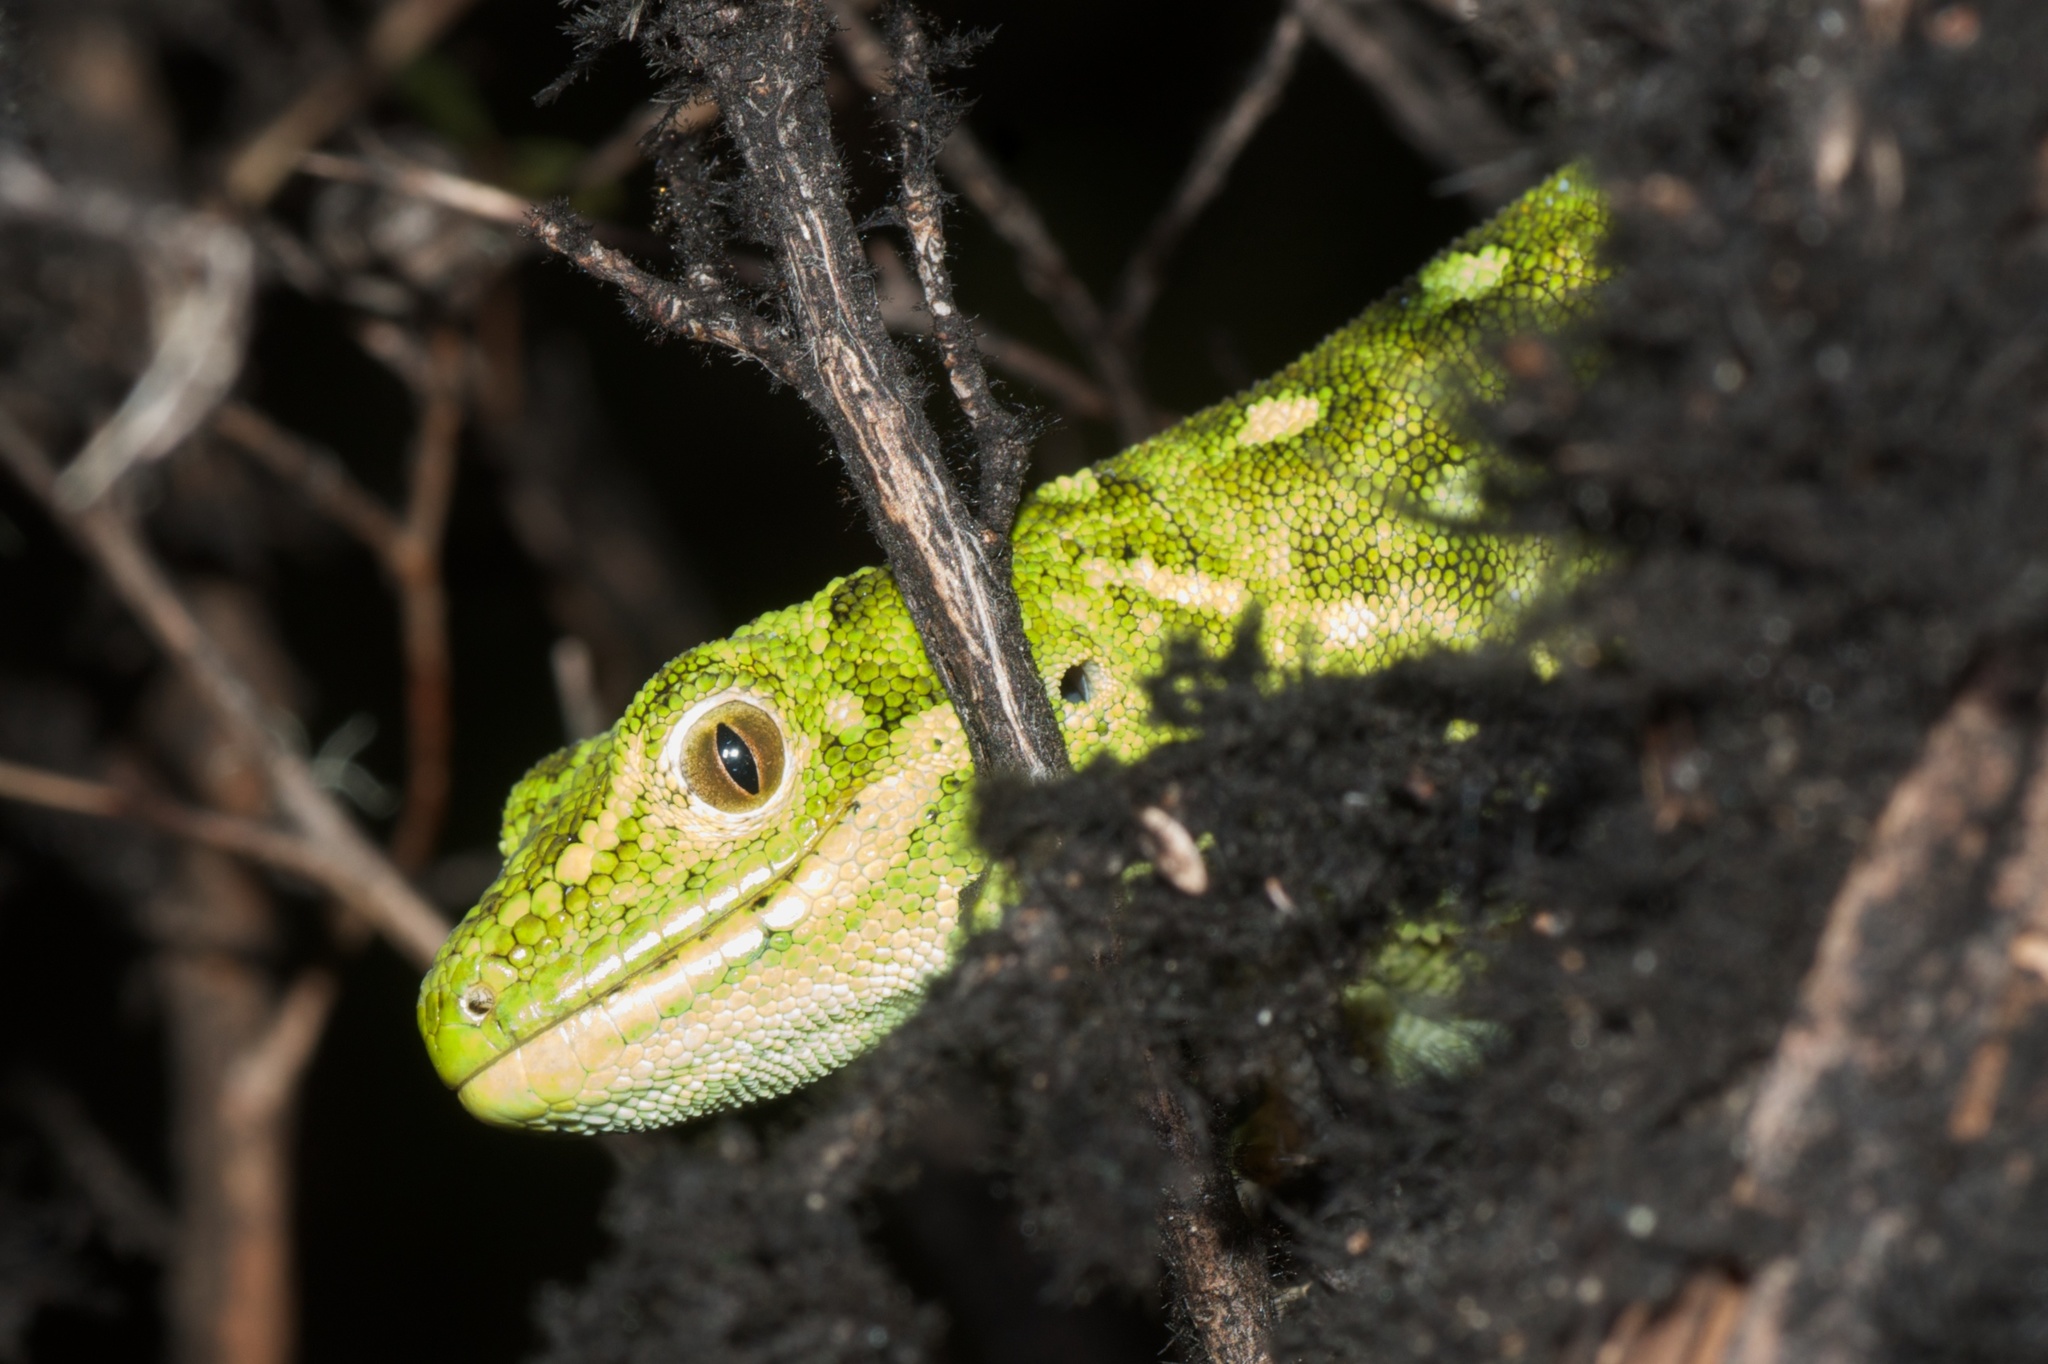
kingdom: Animalia
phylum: Chordata
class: Squamata
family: Diplodactylidae
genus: Naultinus
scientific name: Naultinus tuberculatus
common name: West coast green gecko
